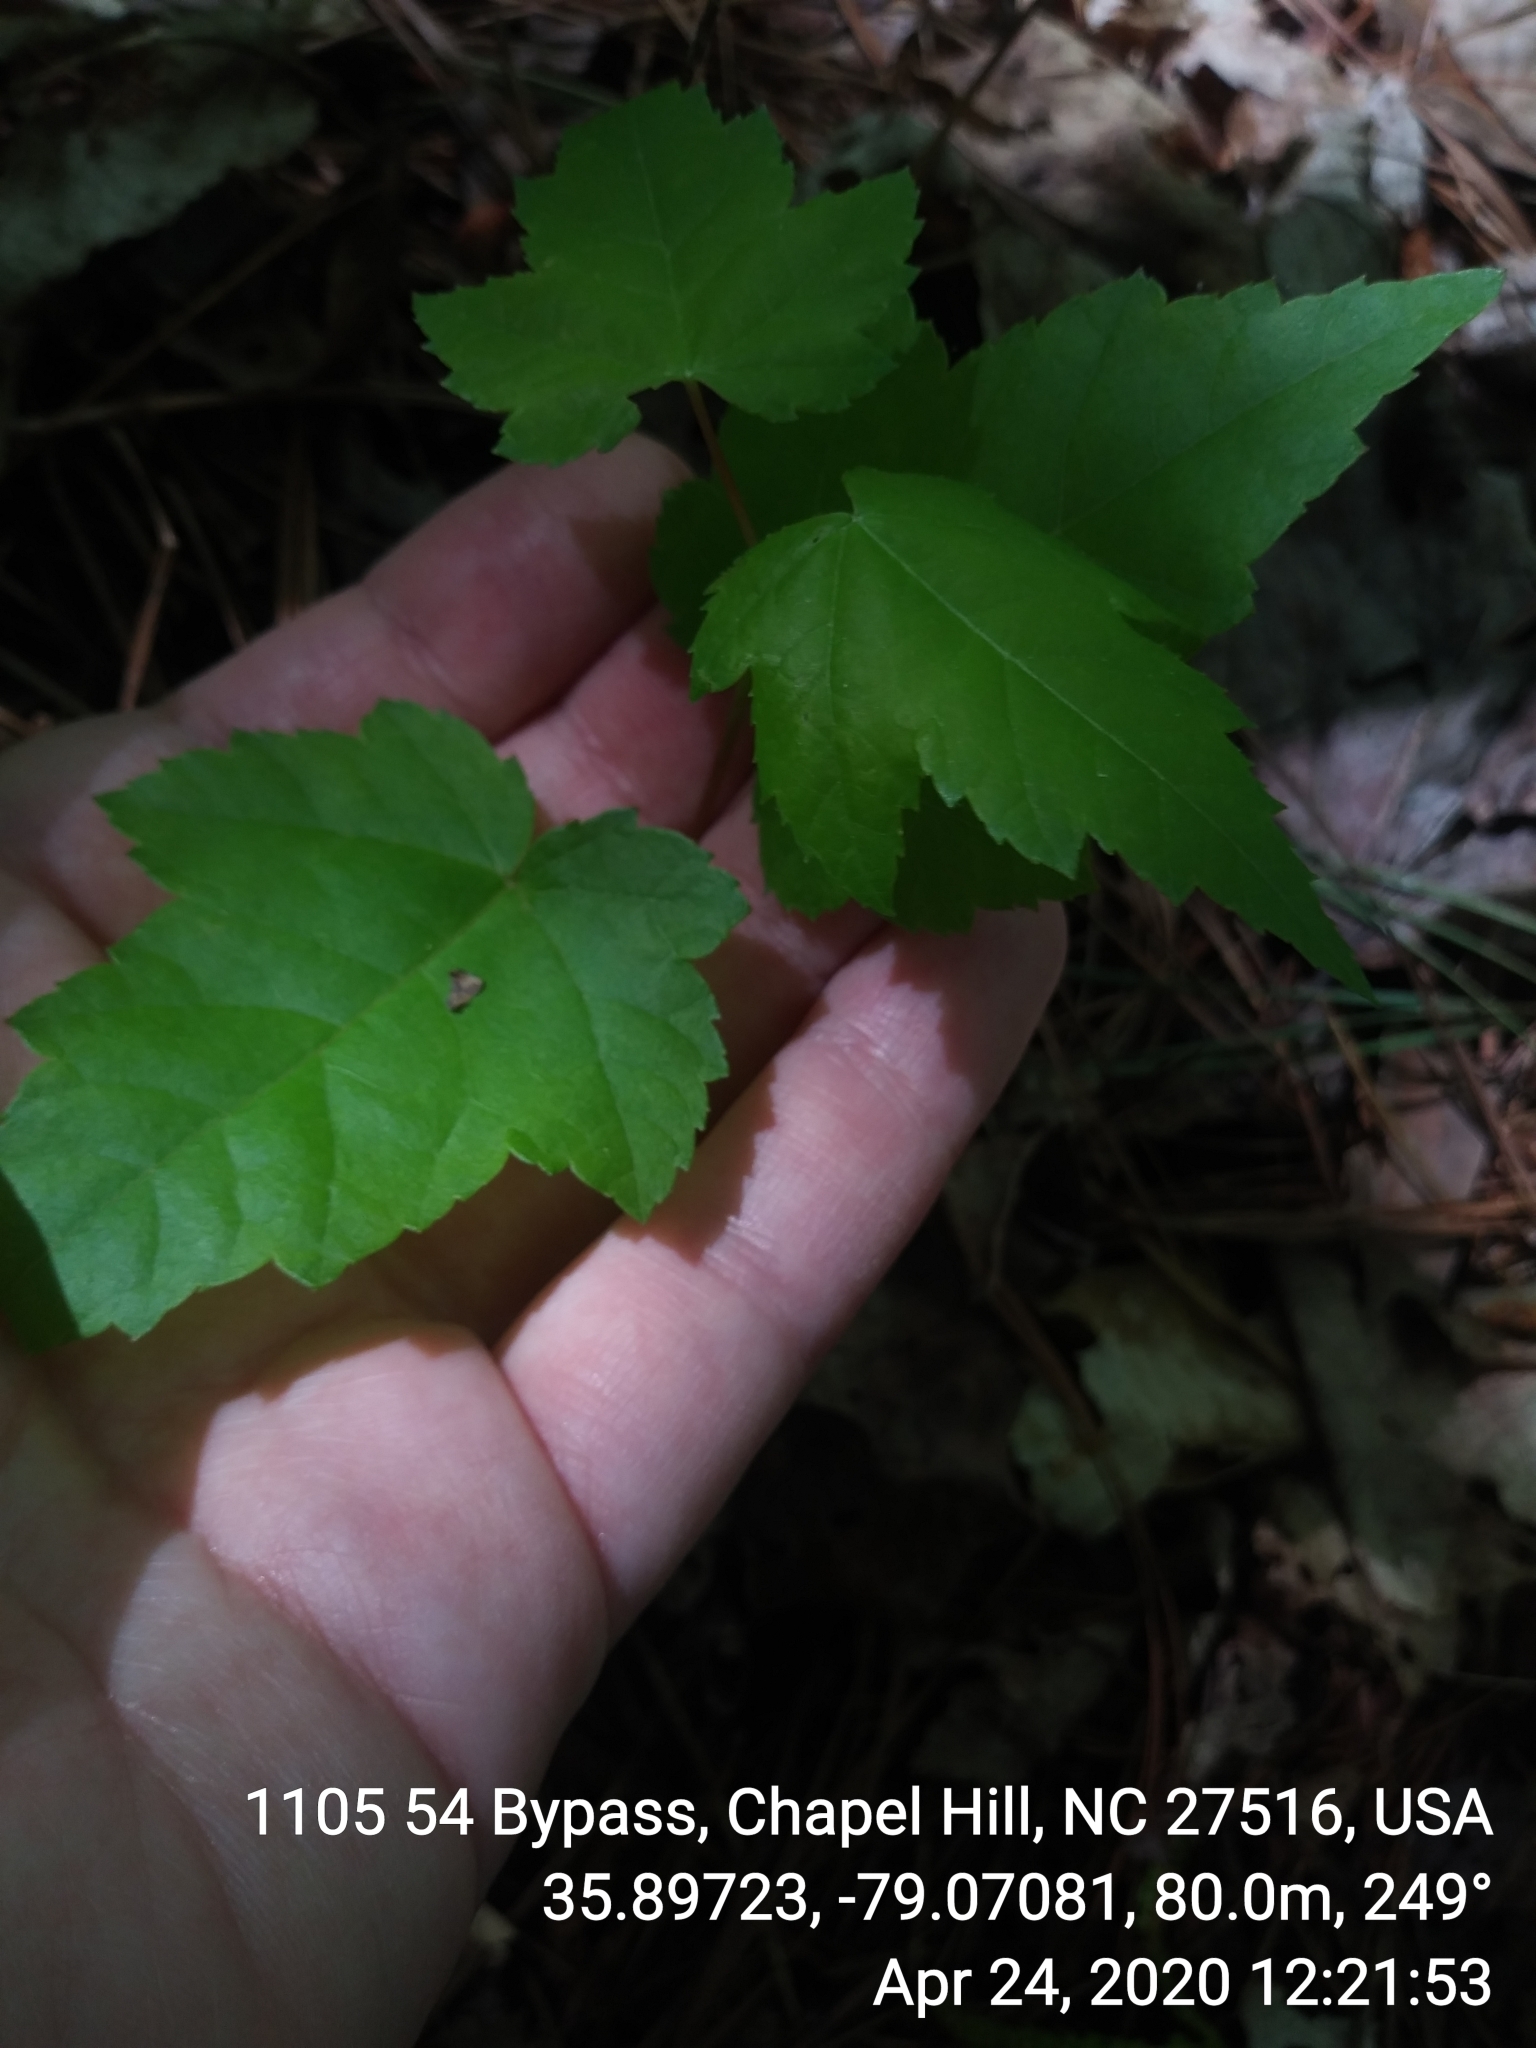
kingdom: Plantae
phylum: Tracheophyta
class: Magnoliopsida
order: Sapindales
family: Sapindaceae
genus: Acer
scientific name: Acer rubrum
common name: Red maple
